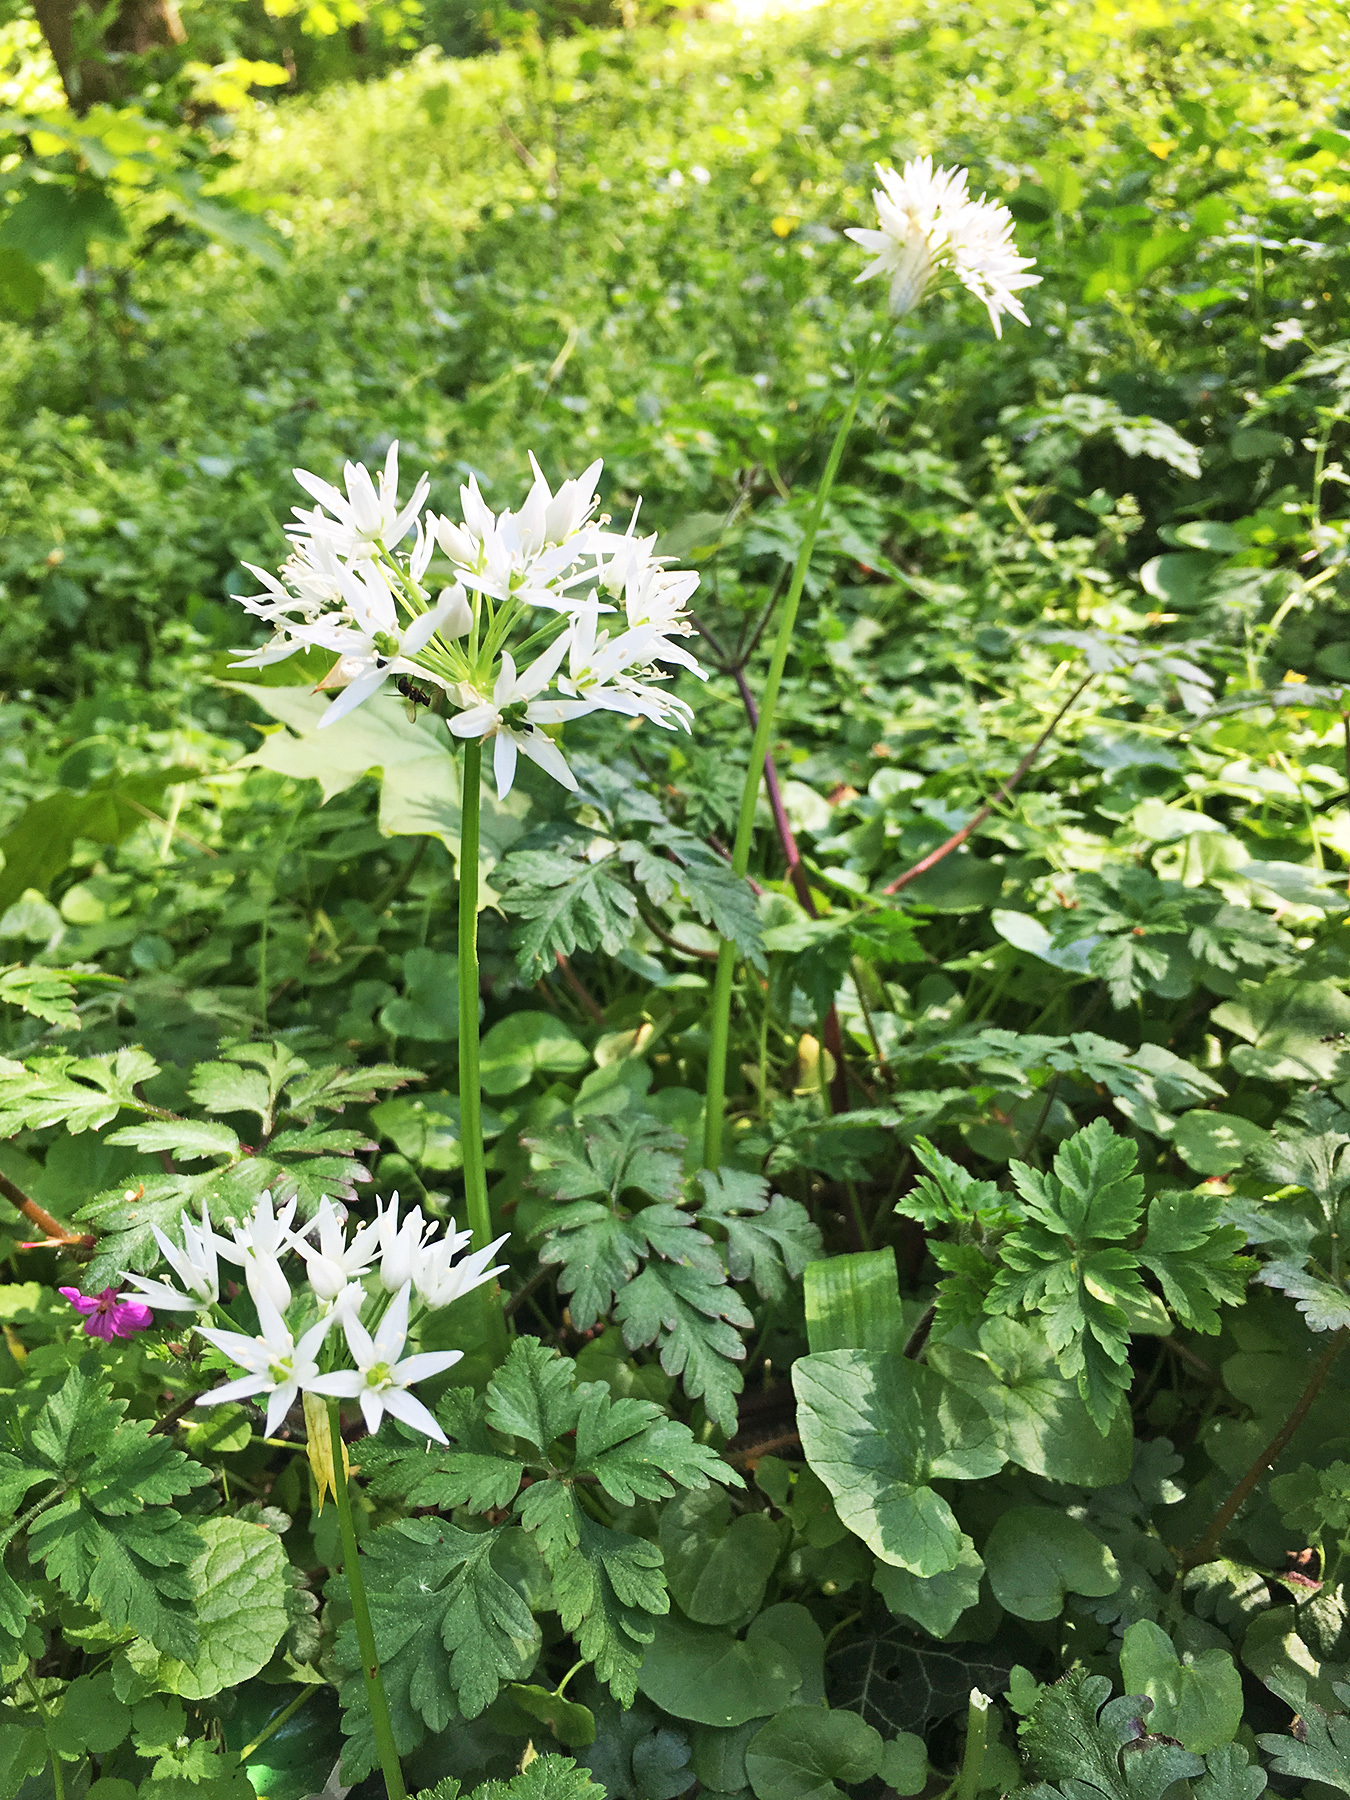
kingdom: Plantae
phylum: Tracheophyta
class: Liliopsida
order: Asparagales
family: Amaryllidaceae
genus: Allium
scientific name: Allium ursinum
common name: Ramsons
